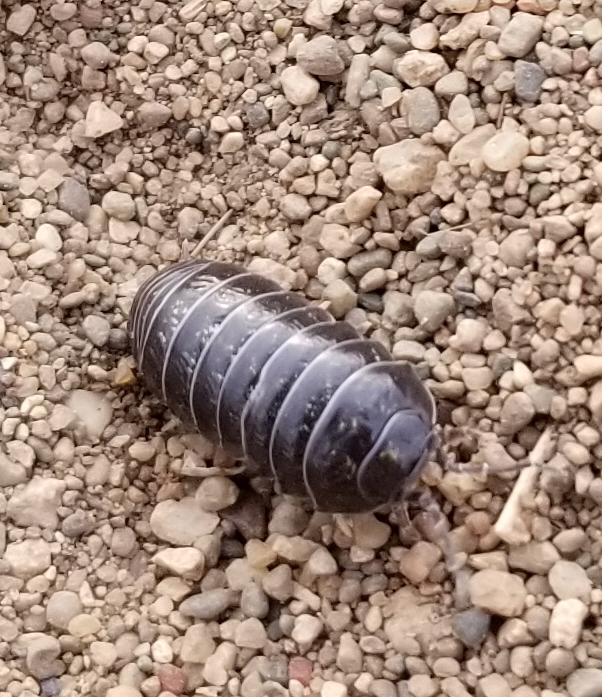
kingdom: Animalia
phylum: Arthropoda
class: Malacostraca
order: Isopoda
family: Armadillidiidae
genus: Armadillidium
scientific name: Armadillidium vulgare
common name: Common pill woodlouse
